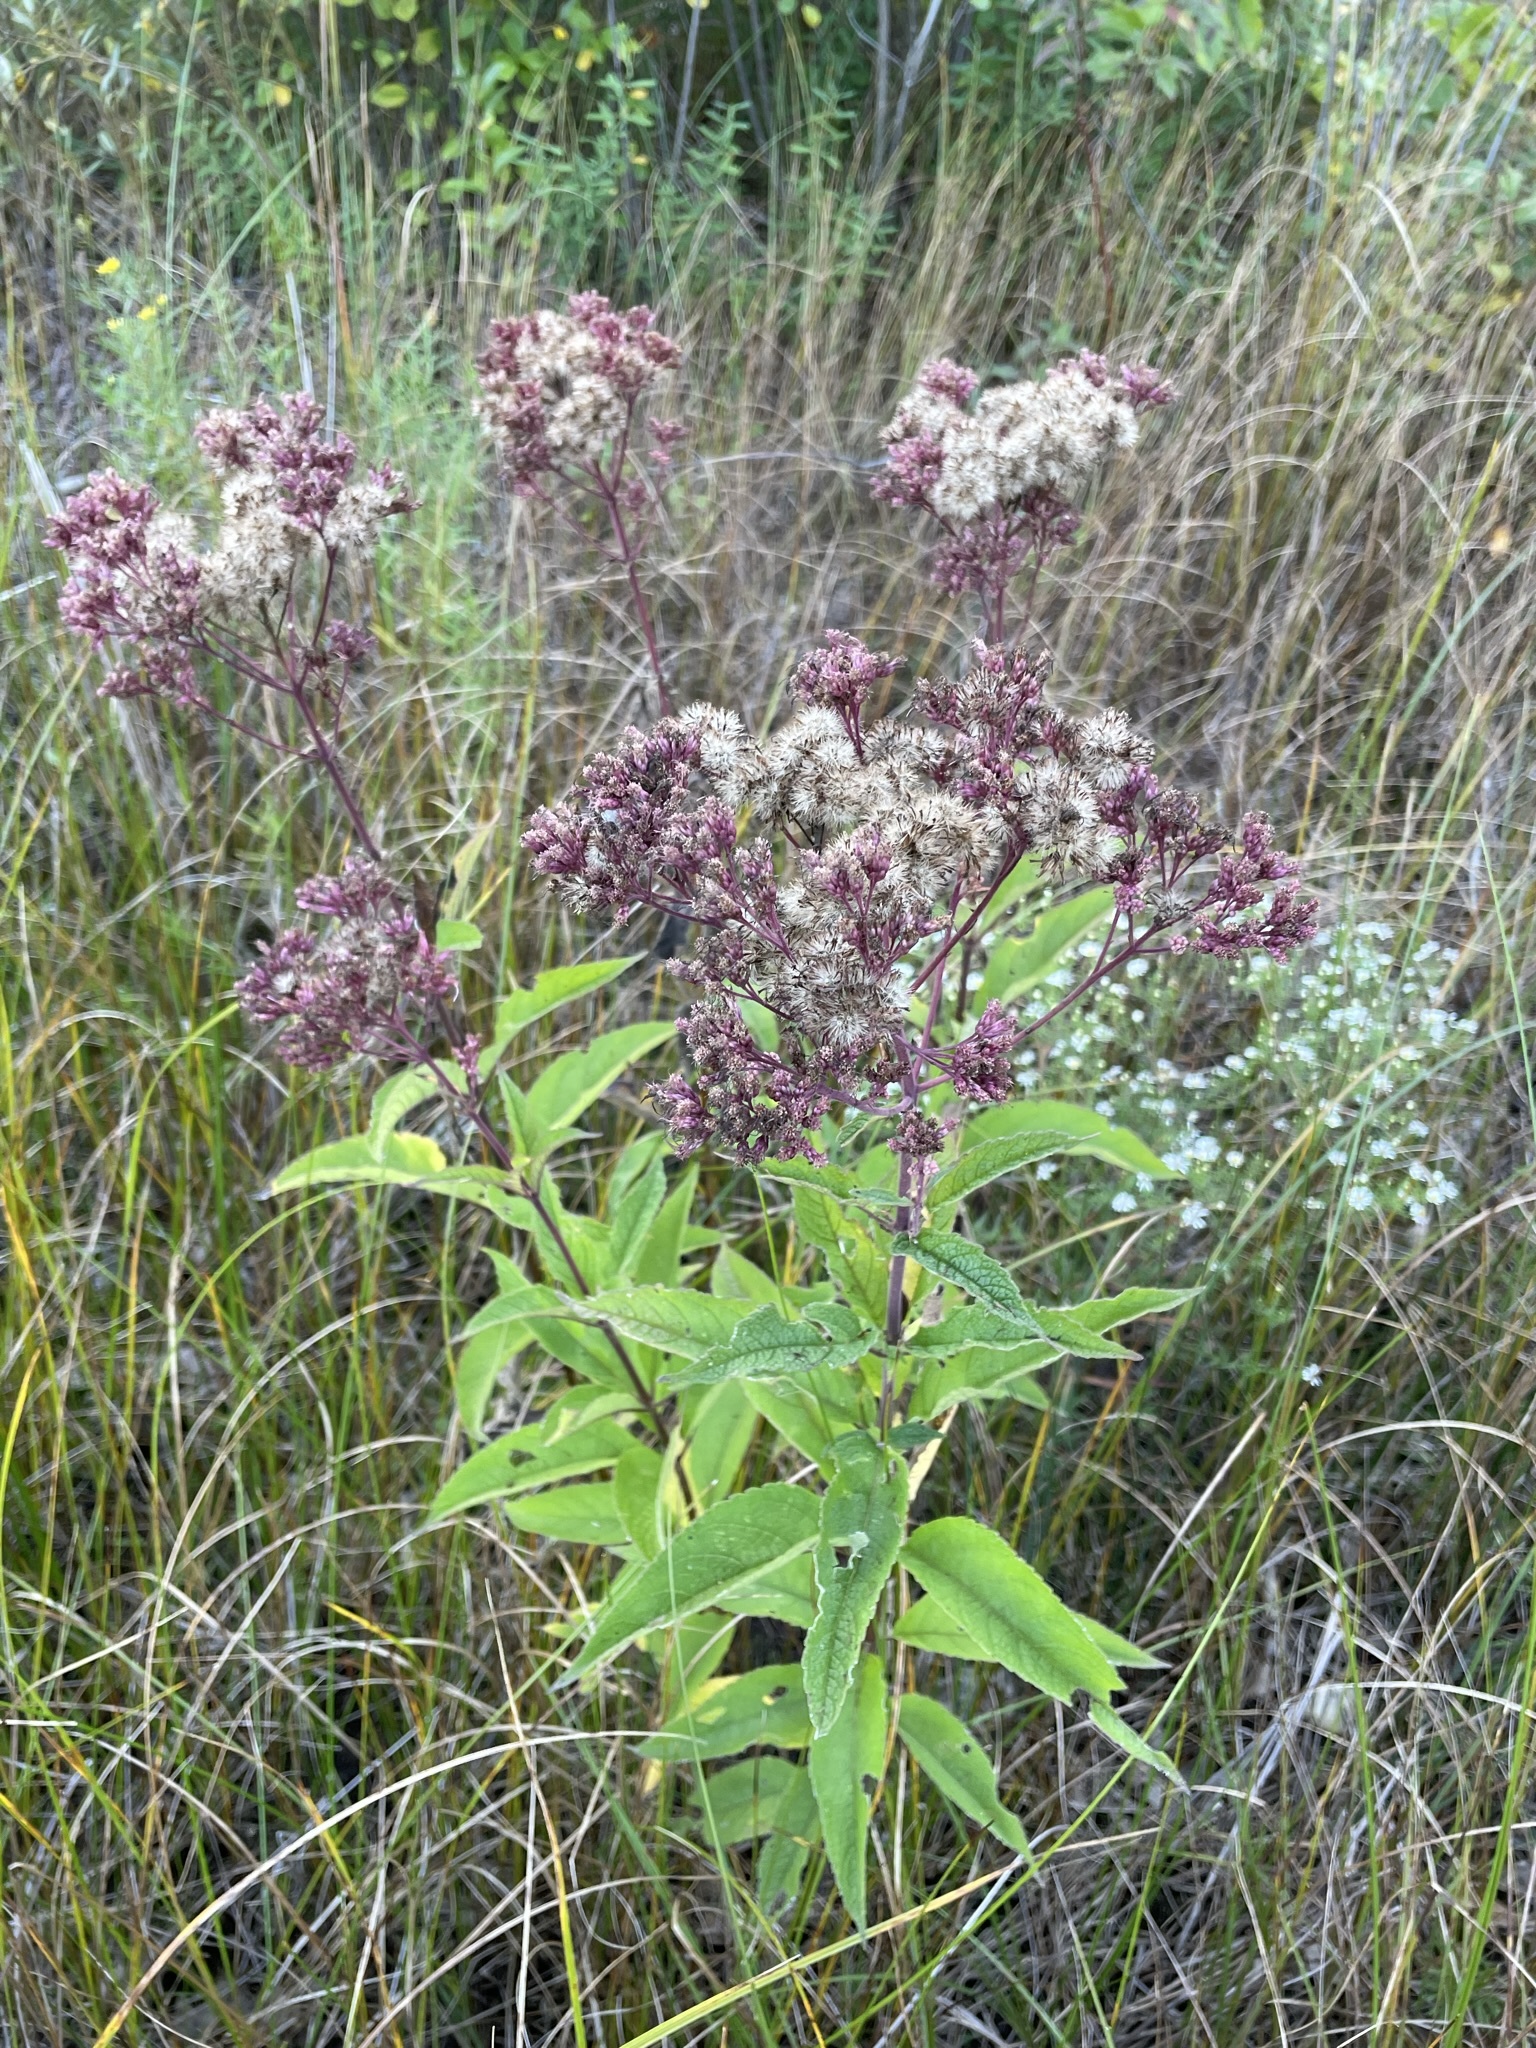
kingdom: Plantae
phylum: Tracheophyta
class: Magnoliopsida
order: Asterales
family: Asteraceae
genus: Eutrochium
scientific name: Eutrochium maculatum
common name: Spotted joe pye weed
